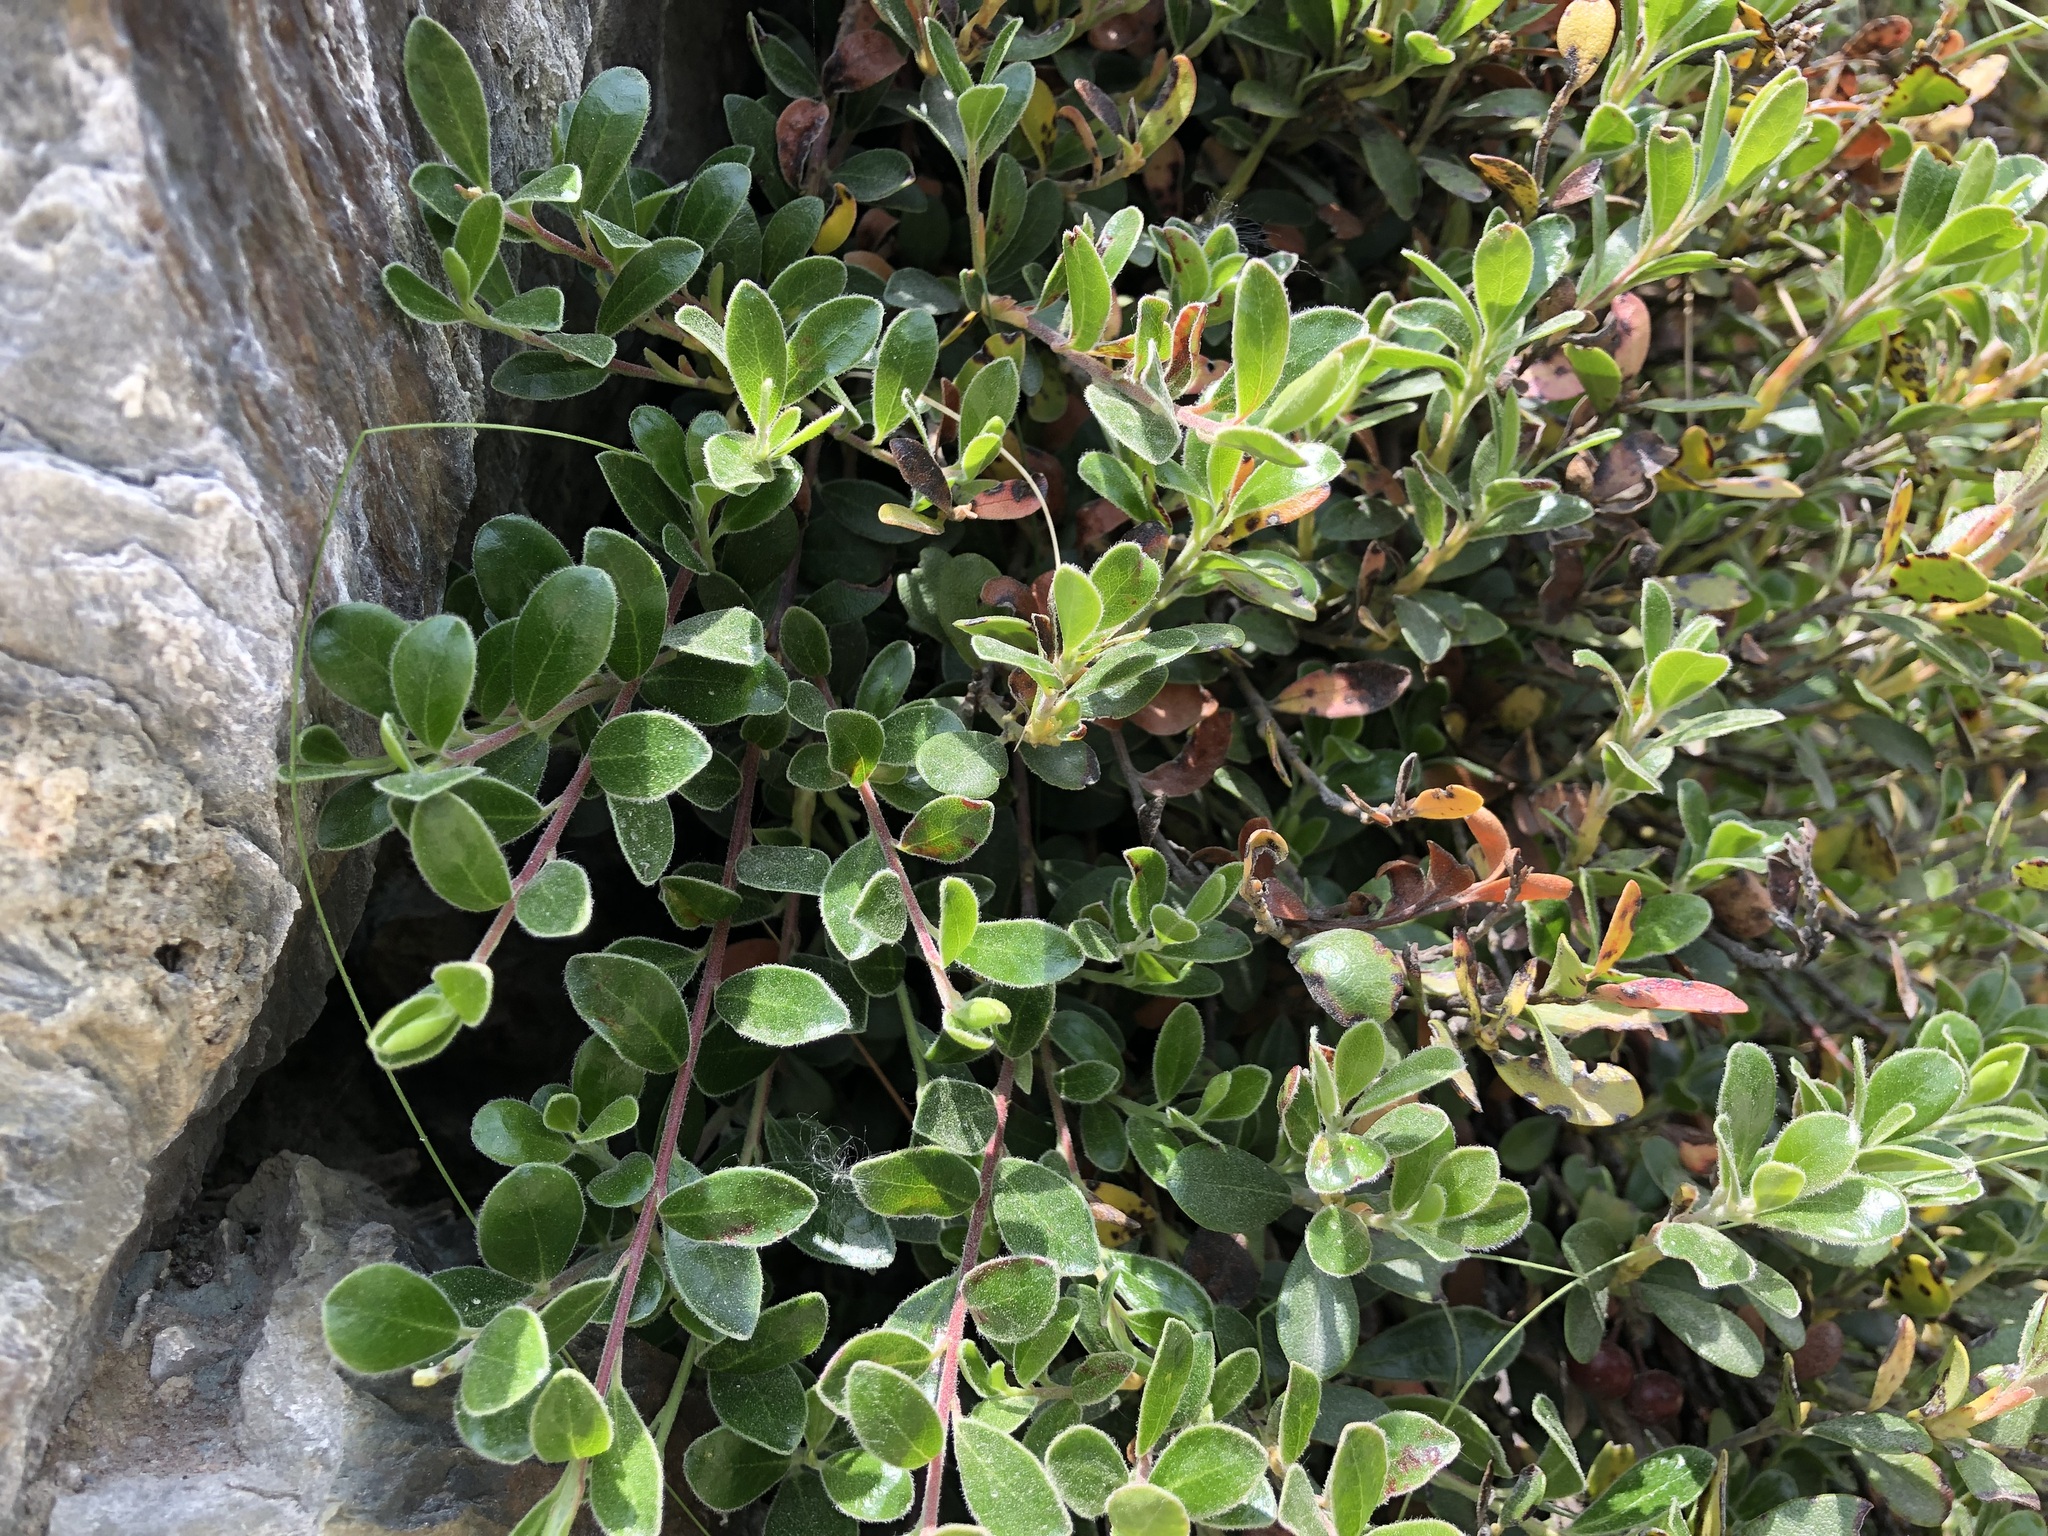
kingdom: Plantae
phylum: Tracheophyta
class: Magnoliopsida
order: Ericales
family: Ericaceae
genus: Arctostaphylos
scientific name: Arctostaphylos uva-ursi
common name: Bearberry
